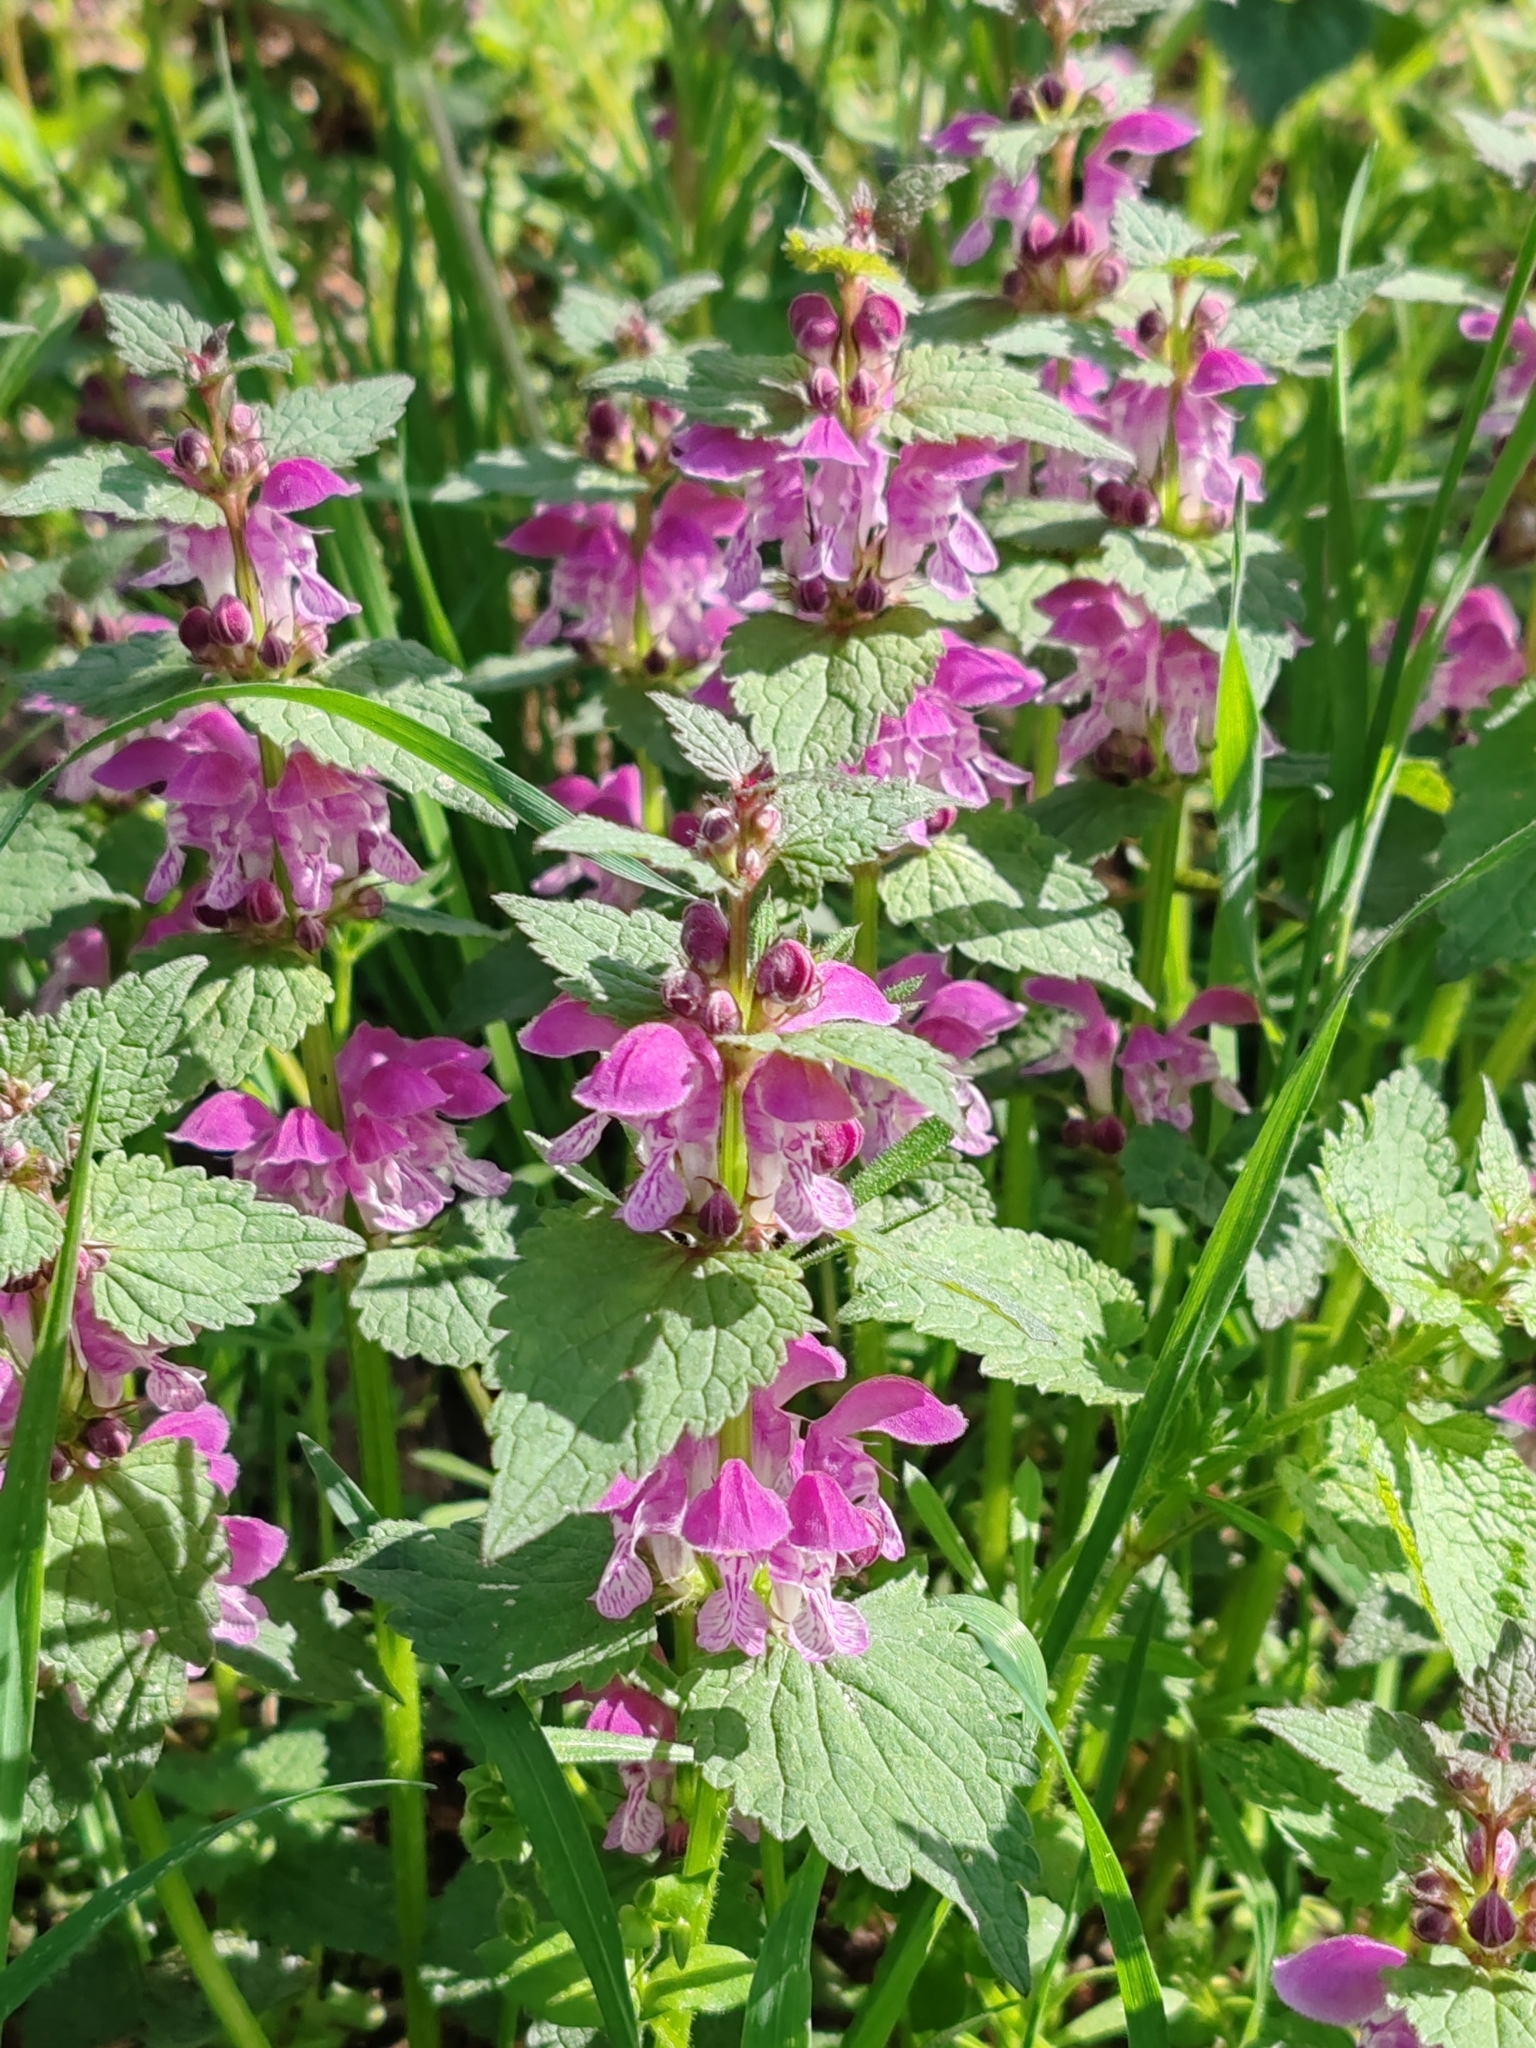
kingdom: Plantae
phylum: Tracheophyta
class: Magnoliopsida
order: Lamiales
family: Lamiaceae
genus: Lamium
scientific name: Lamium maculatum
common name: Spotted dead-nettle
